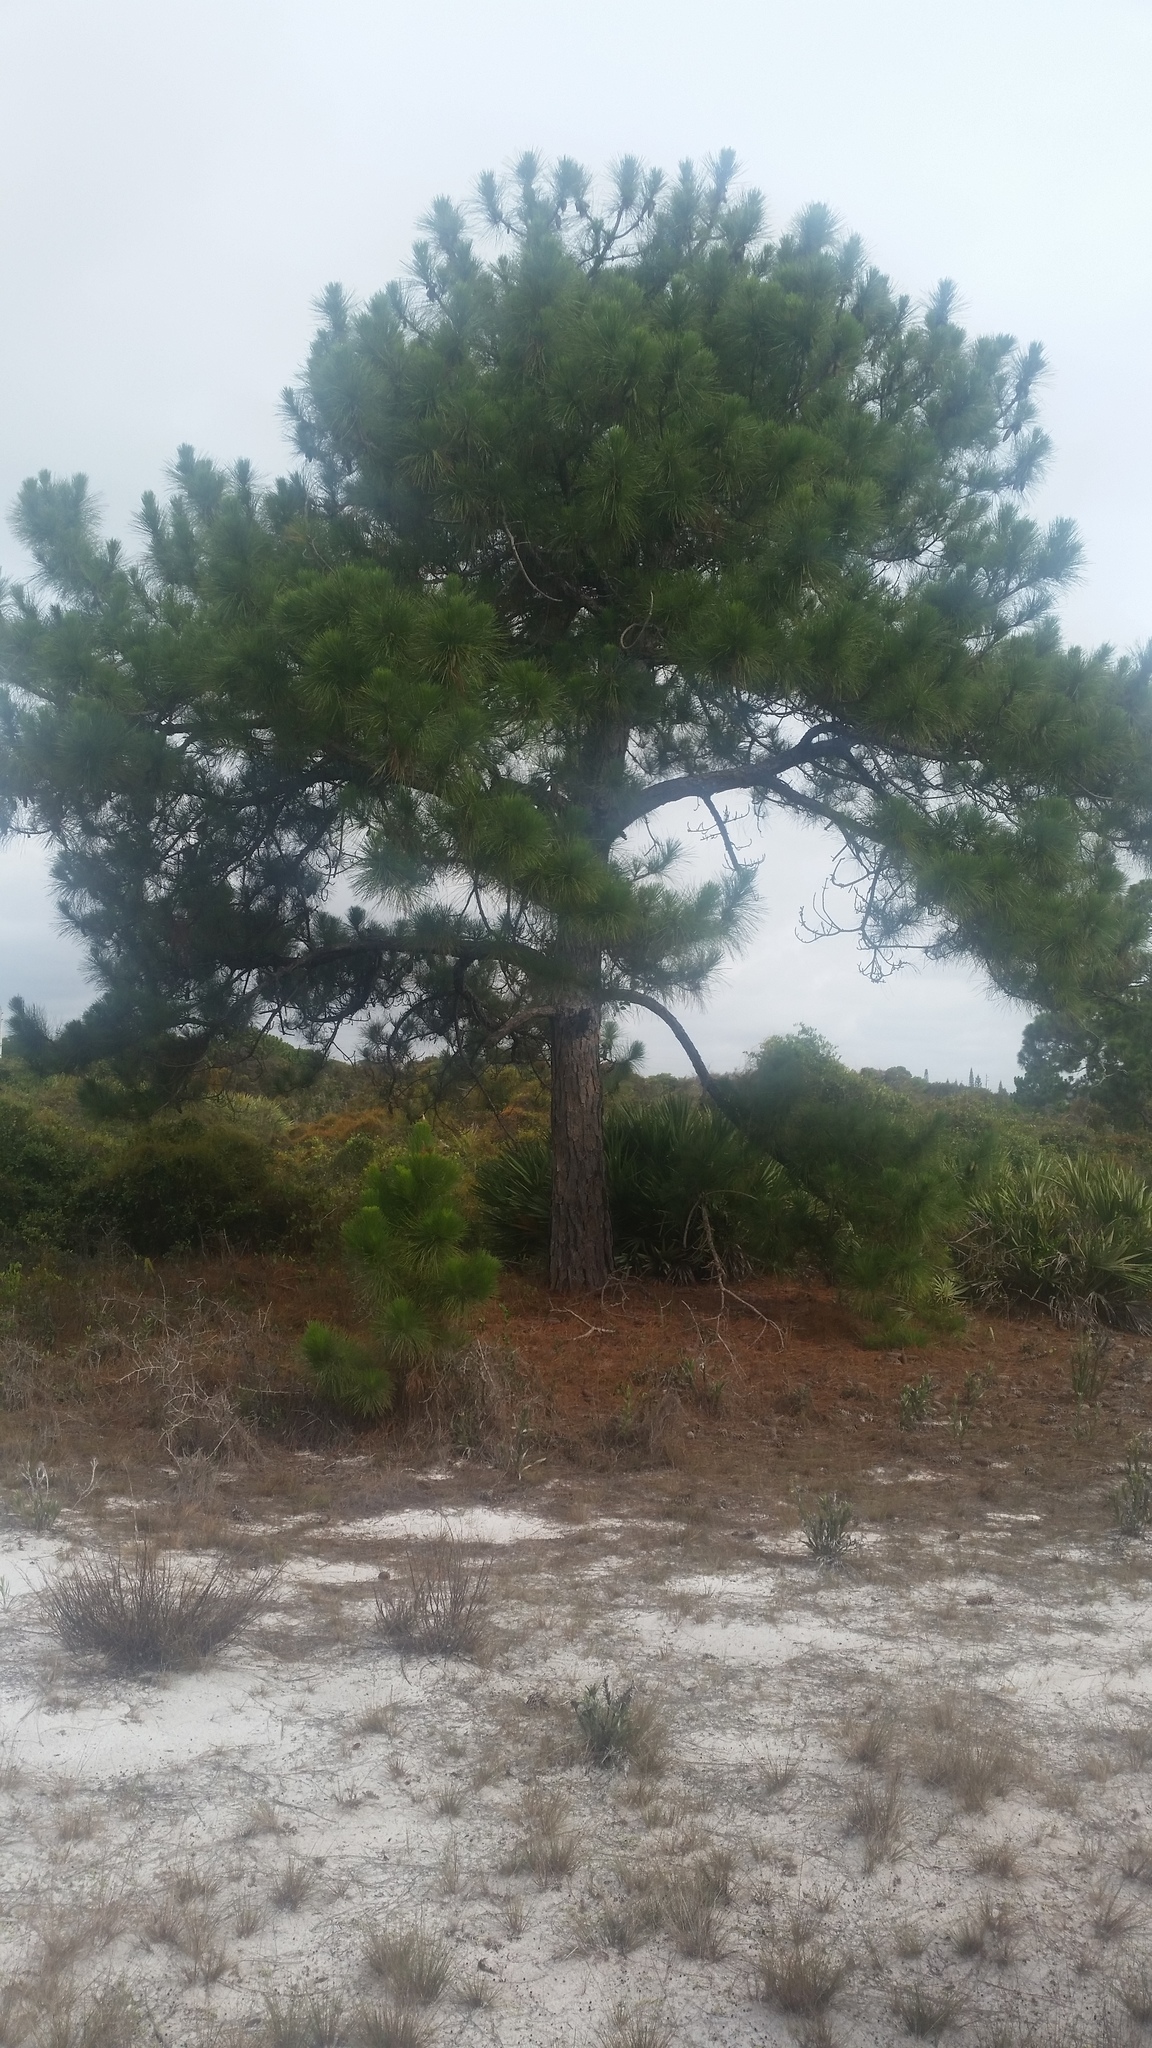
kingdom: Plantae
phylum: Tracheophyta
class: Pinopsida
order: Pinales
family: Pinaceae
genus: Pinus
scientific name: Pinus elliottii
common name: Slash pine
